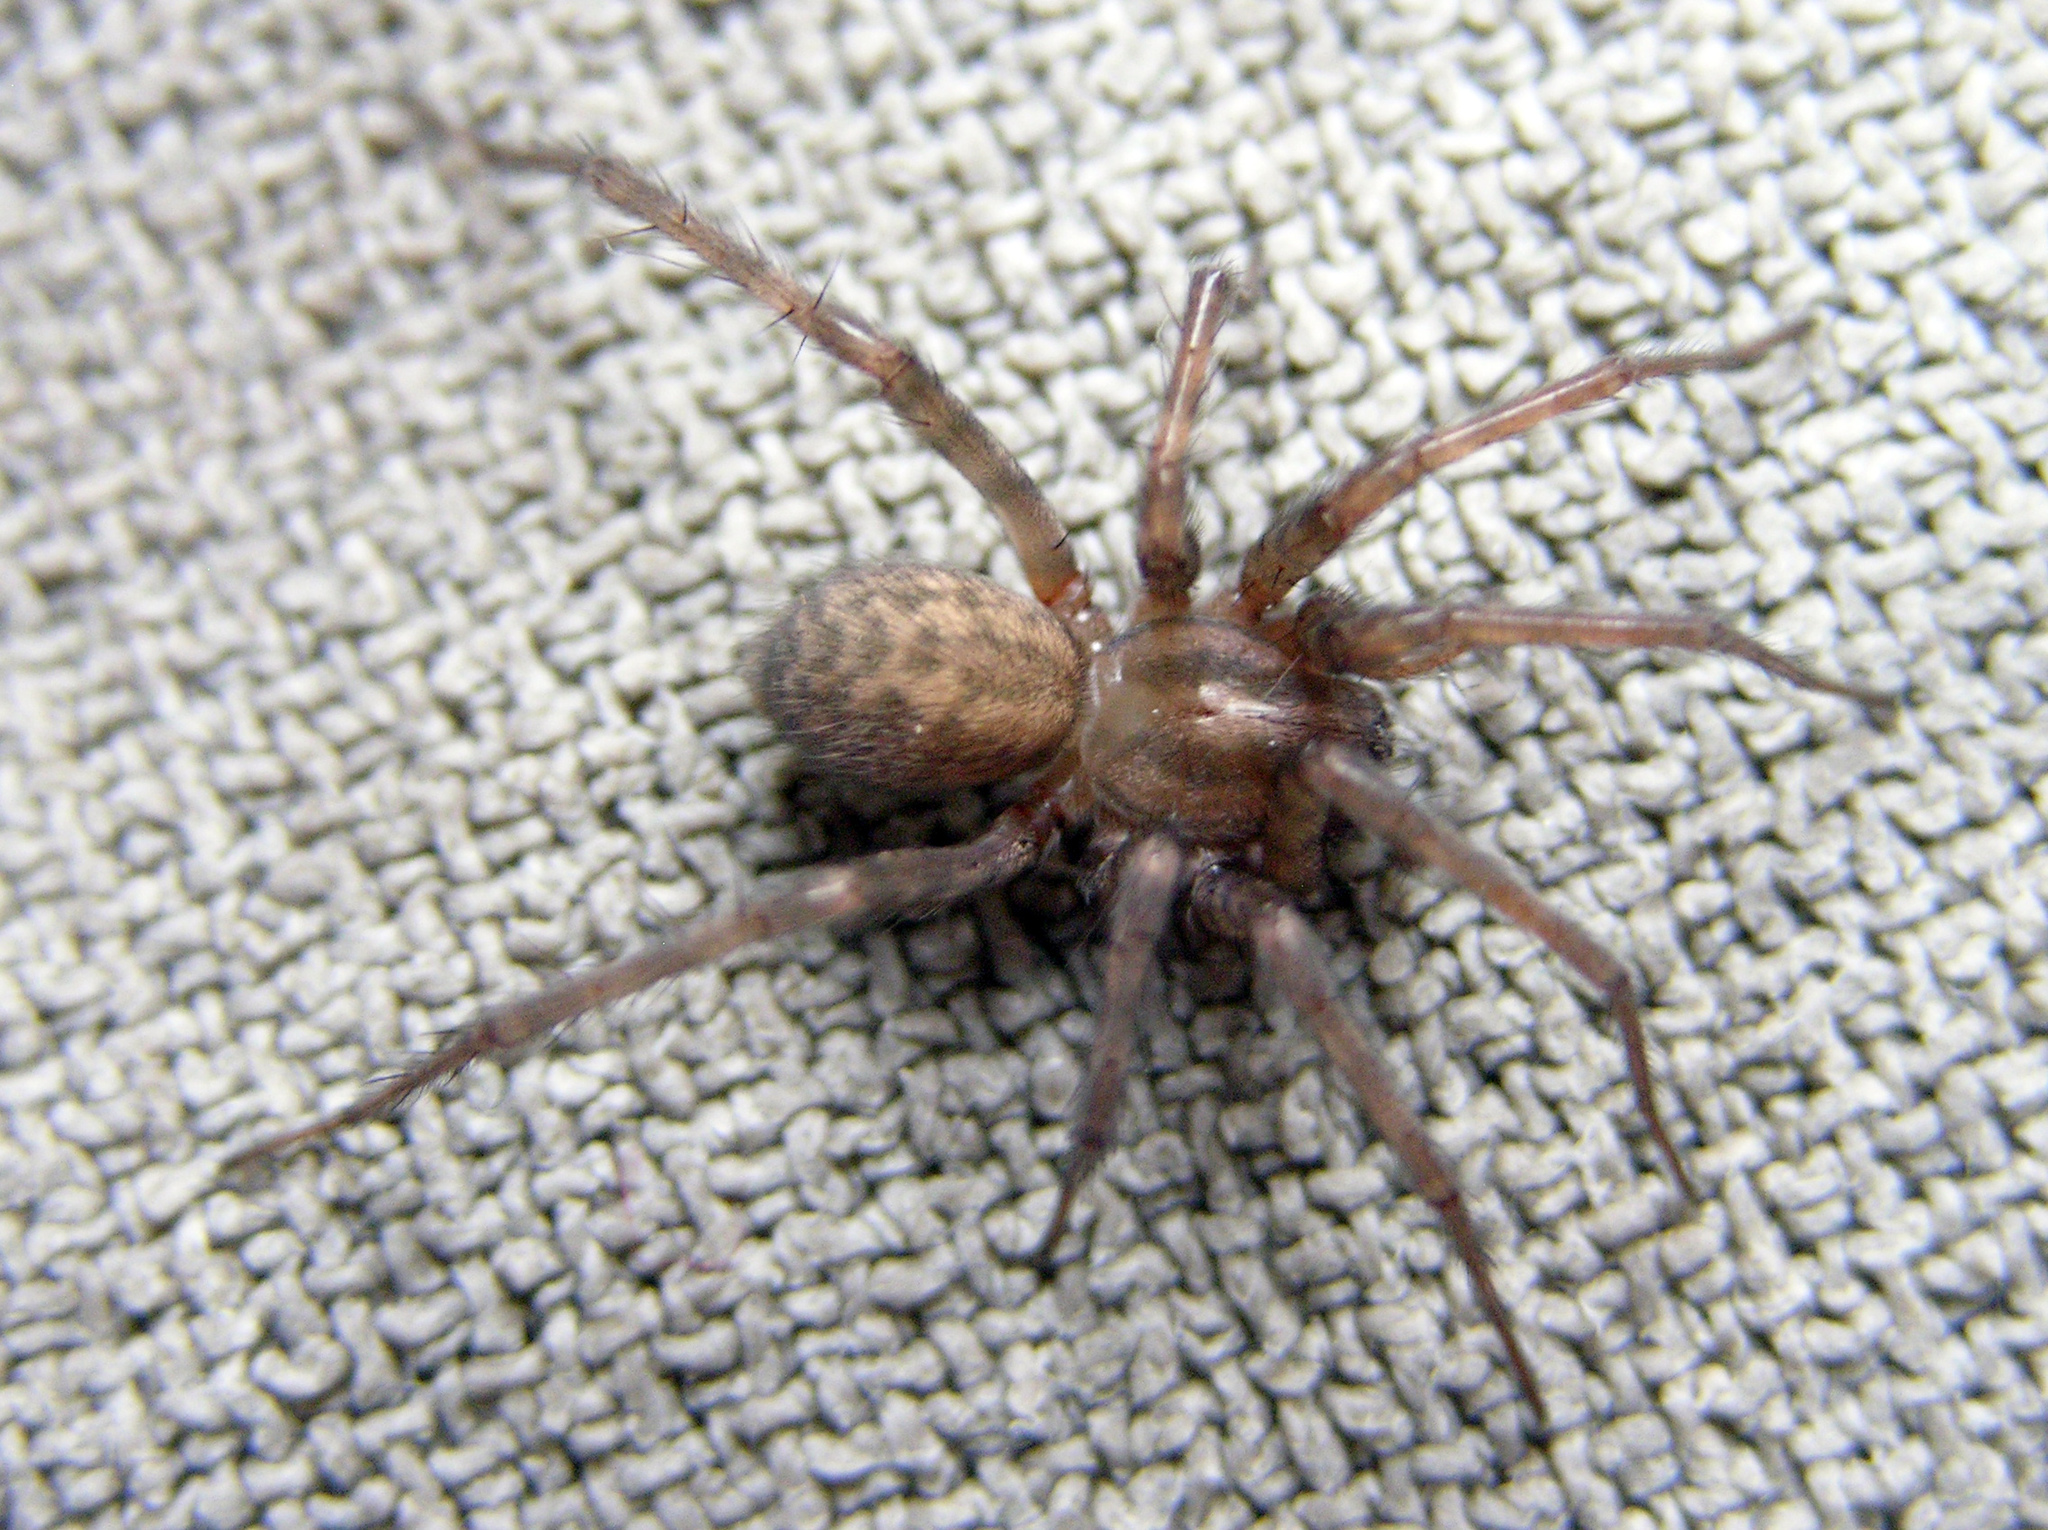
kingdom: Animalia
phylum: Arthropoda
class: Arachnida
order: Araneae
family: Agelenidae
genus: Tegenaria
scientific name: Tegenaria domestica
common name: Barn funnel weaver
